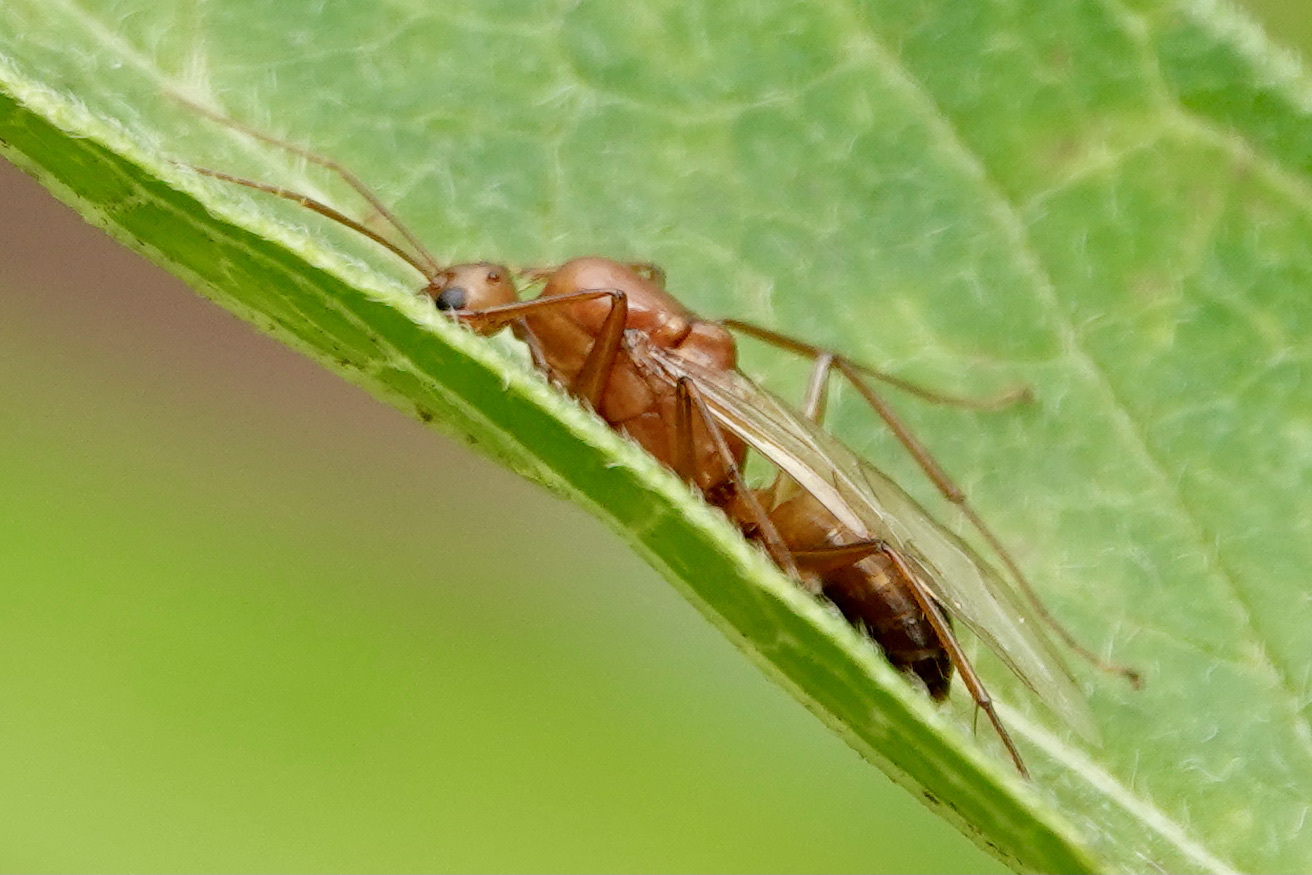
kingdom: Animalia
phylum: Arthropoda
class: Insecta
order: Hymenoptera
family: Formicidae
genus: Camponotus
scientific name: Camponotus castaneus
